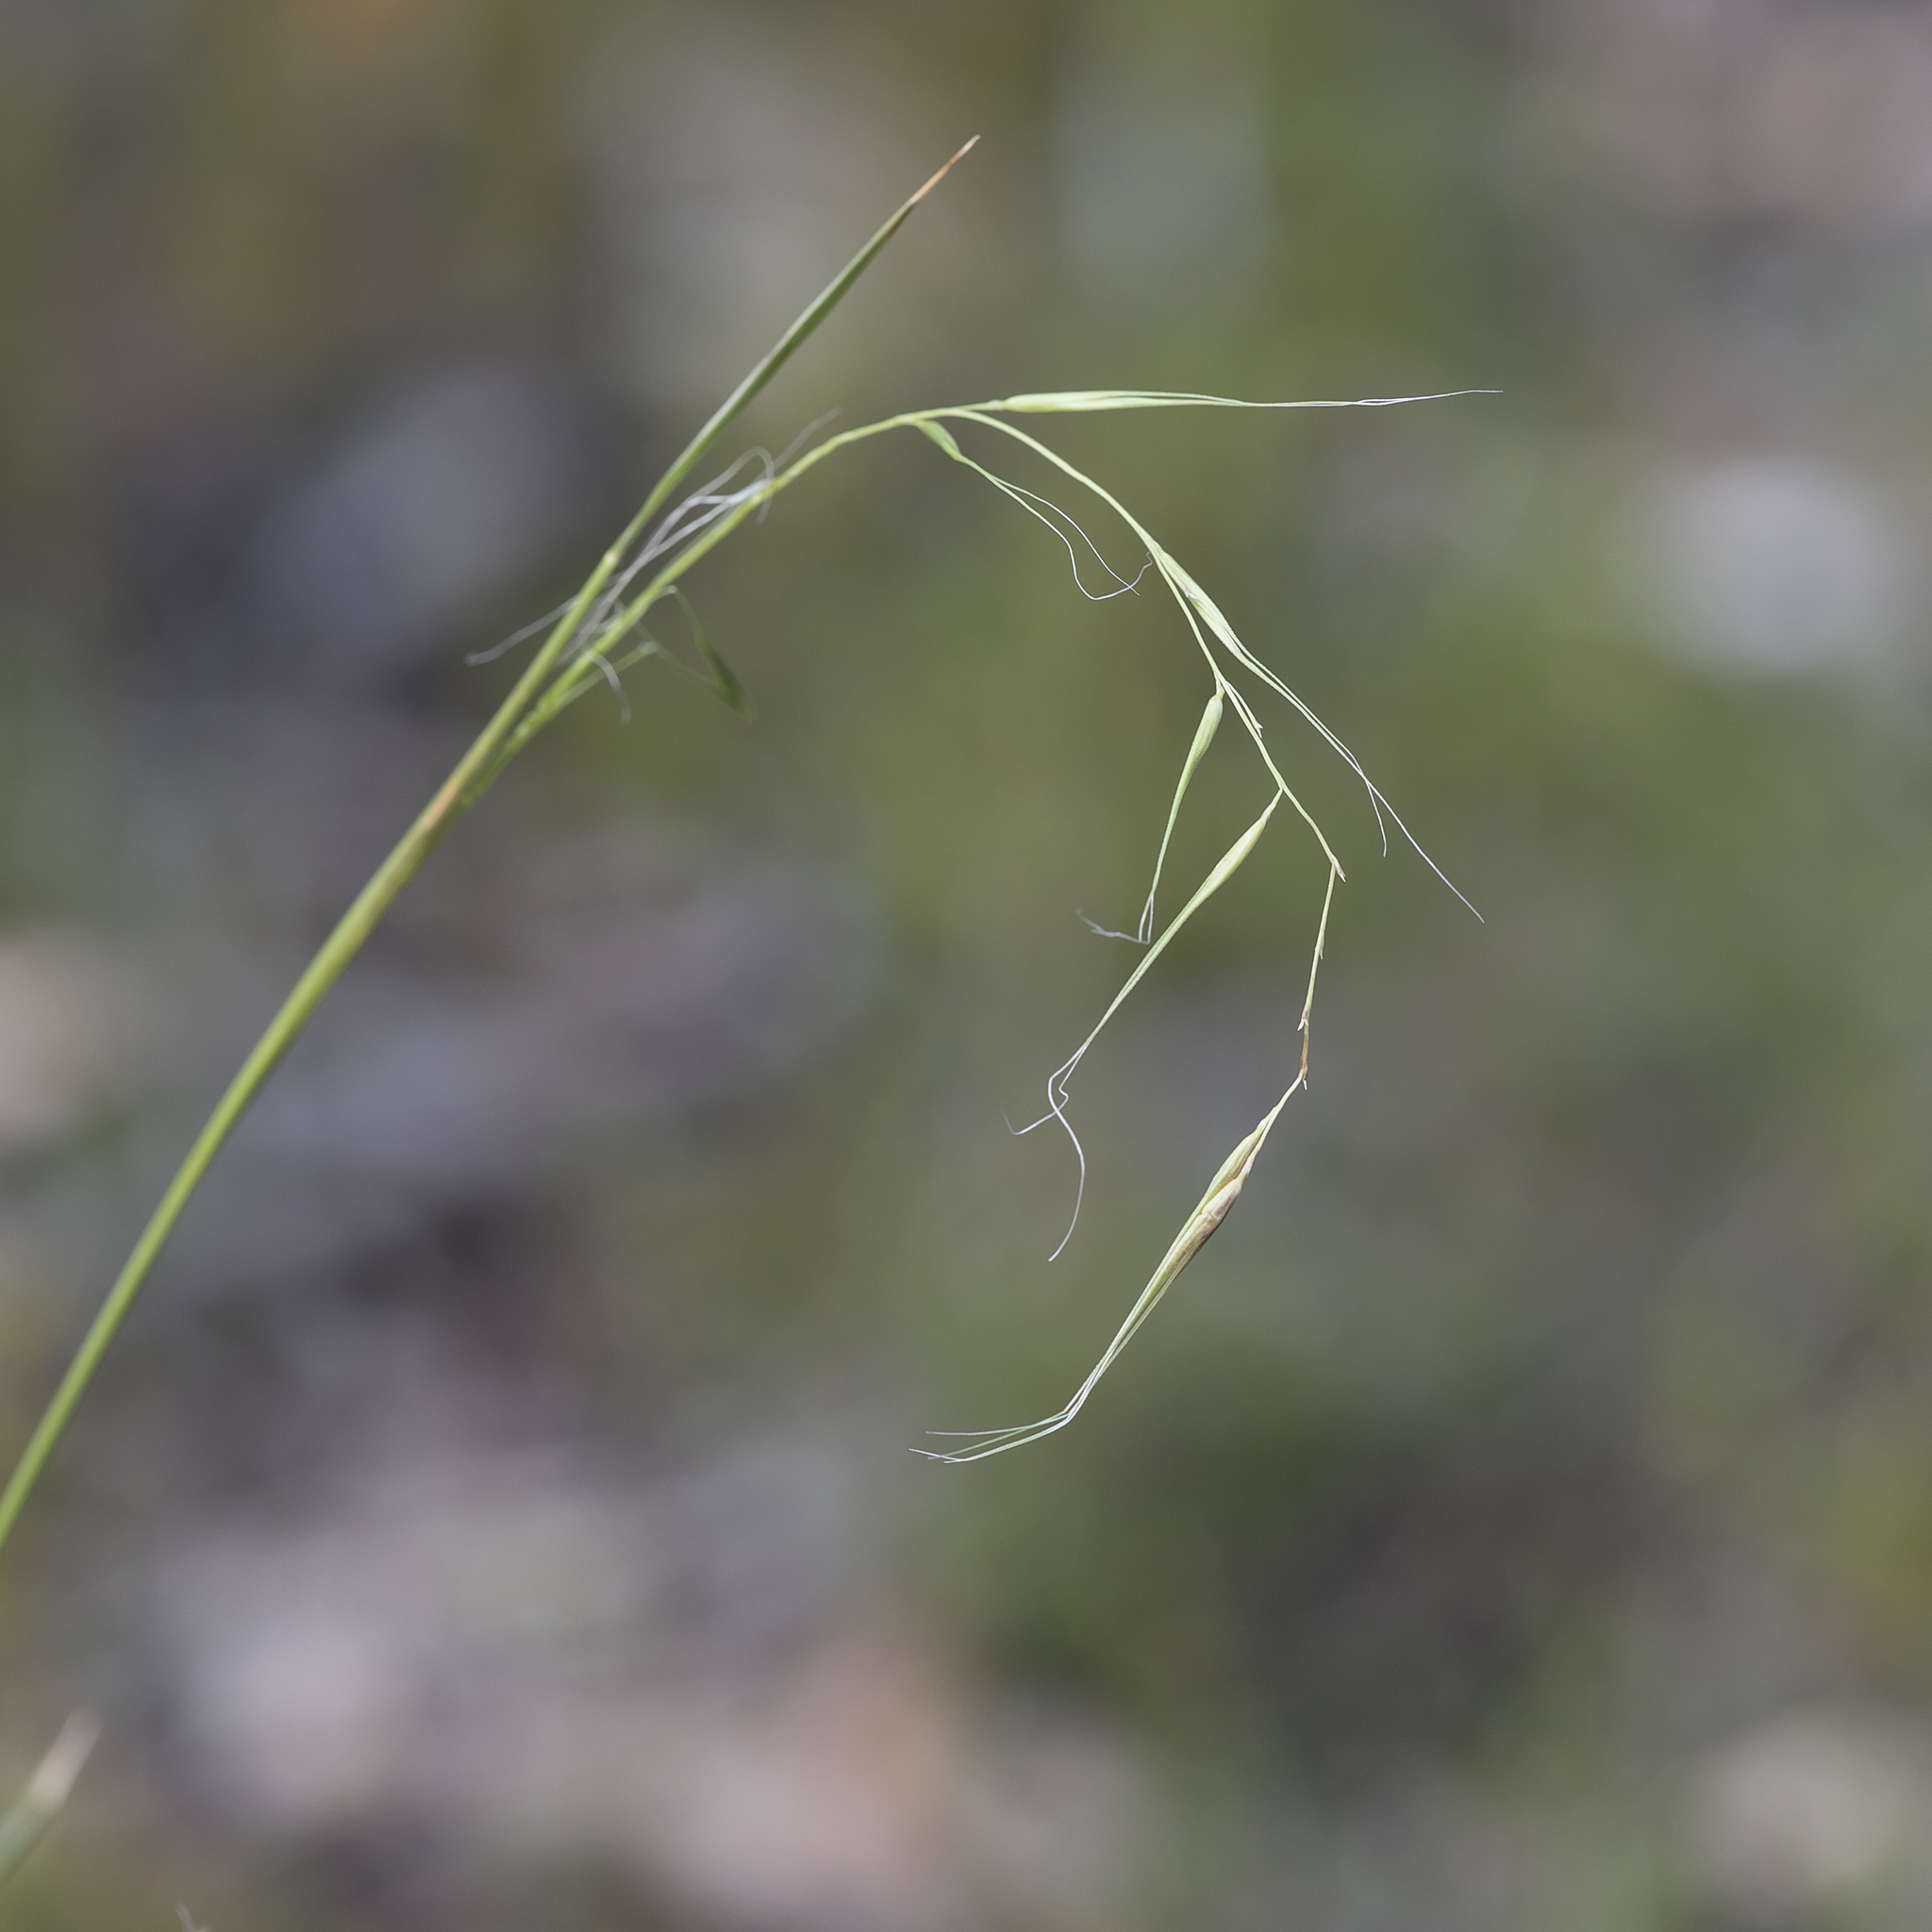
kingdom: Plantae
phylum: Tracheophyta
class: Liliopsida
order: Poales
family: Poaceae
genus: Microlaena
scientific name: Microlaena stipoides
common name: Meadow ricegrass
